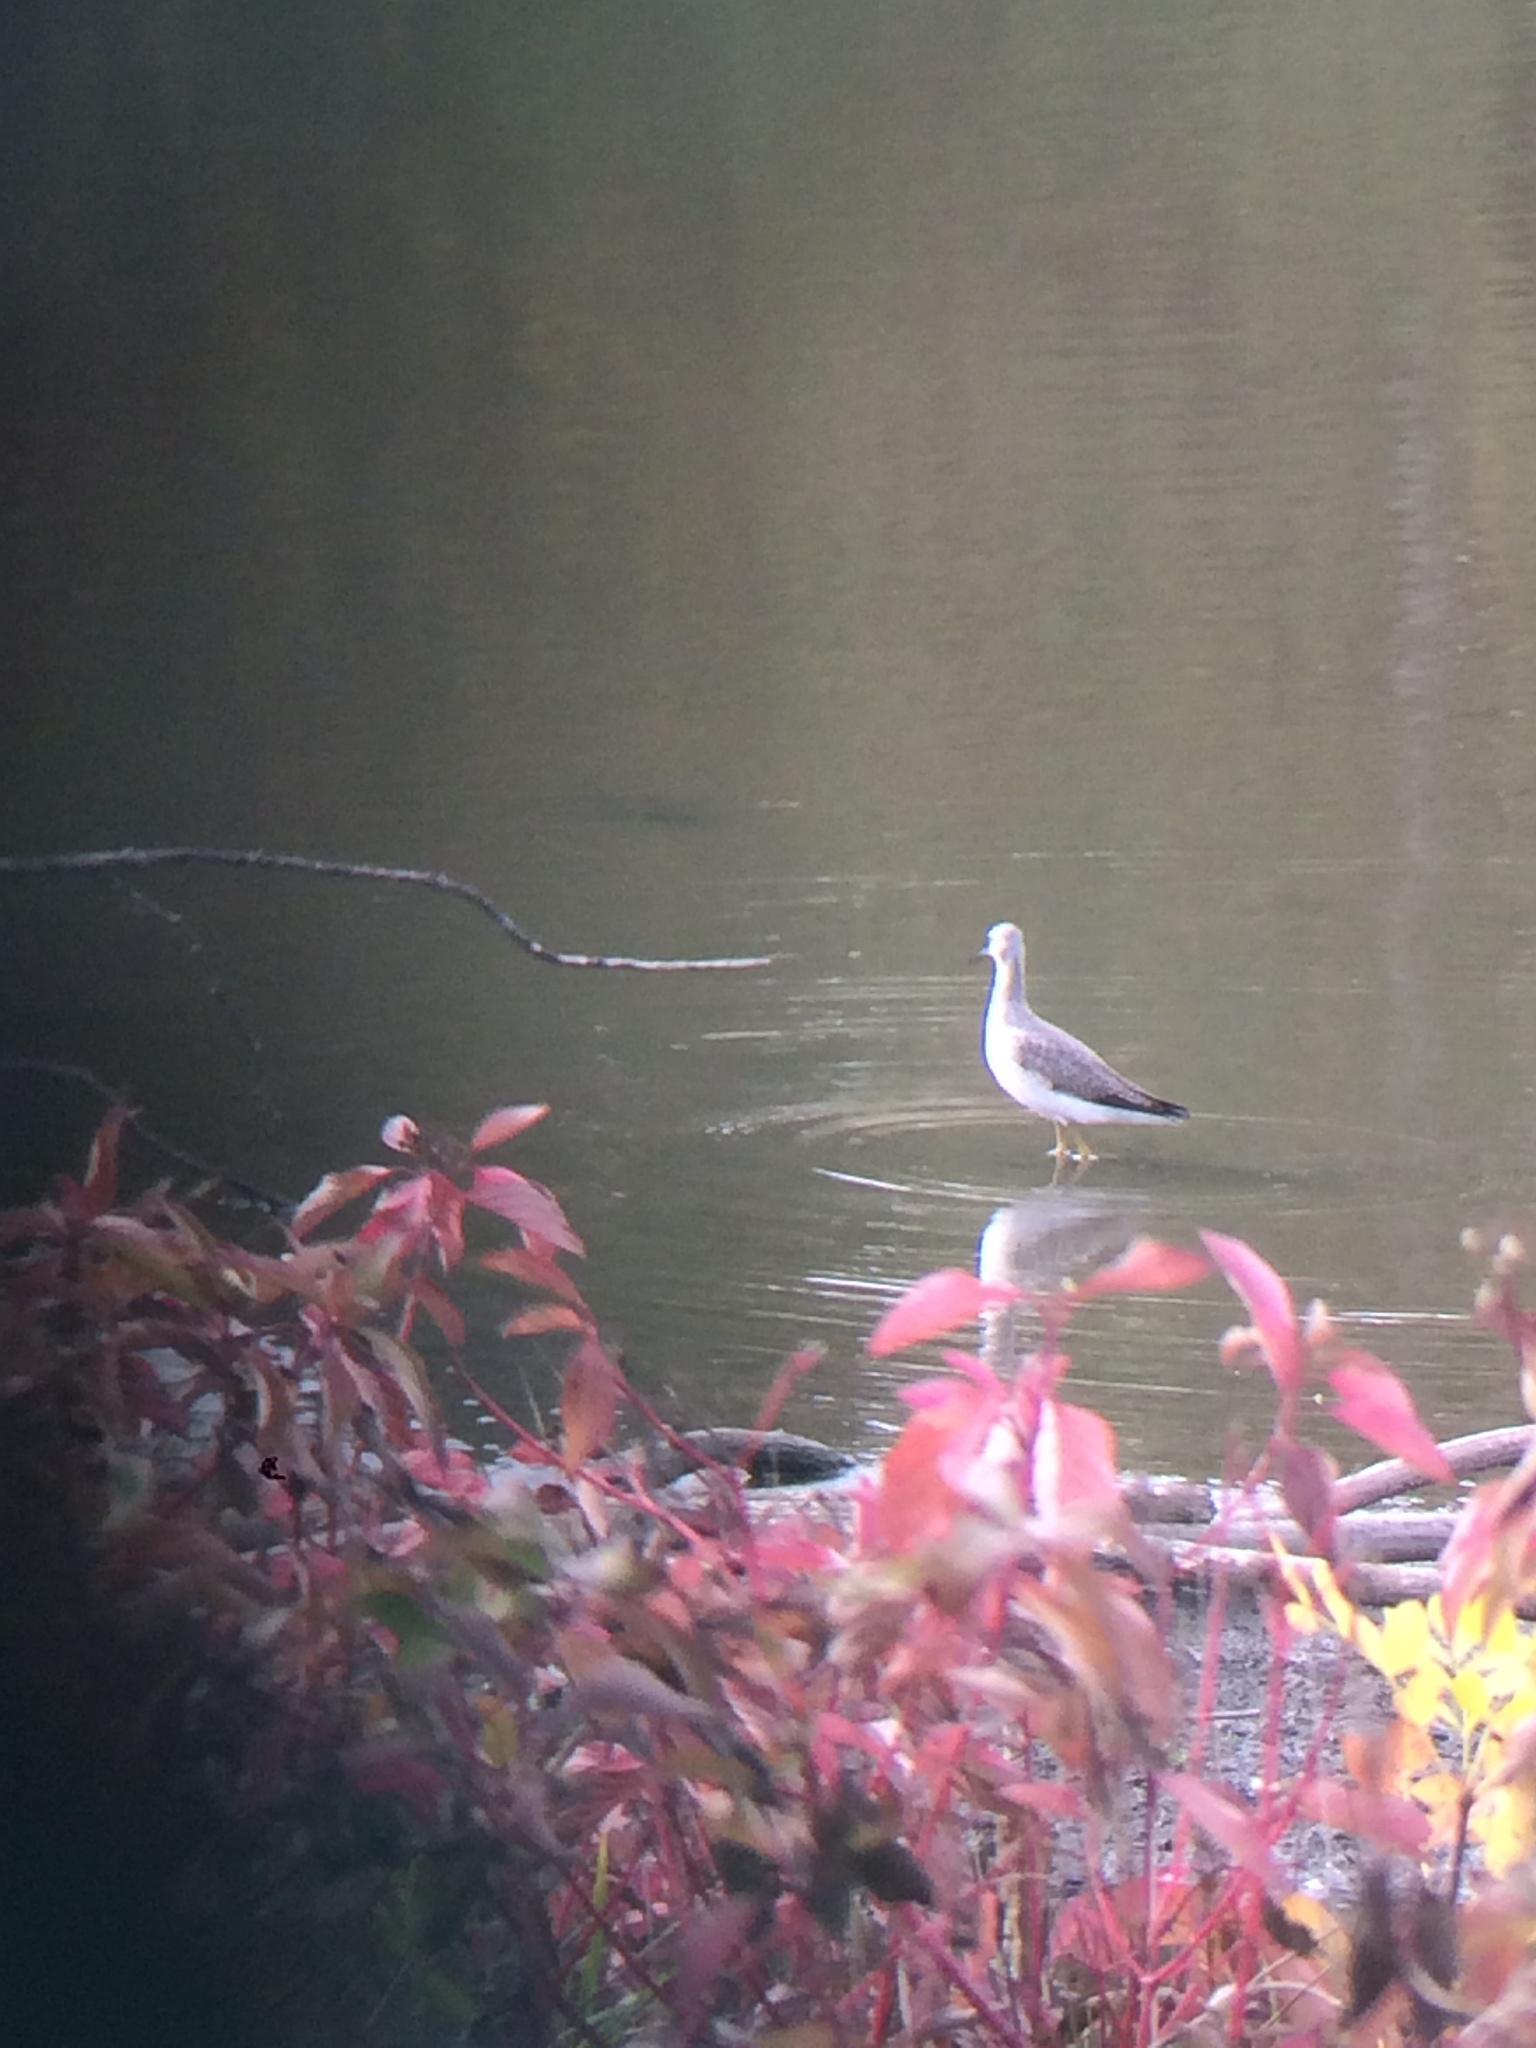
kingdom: Animalia
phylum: Chordata
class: Aves
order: Charadriiformes
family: Scolopacidae
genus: Tringa
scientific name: Tringa melanoleuca
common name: Greater yellowlegs
